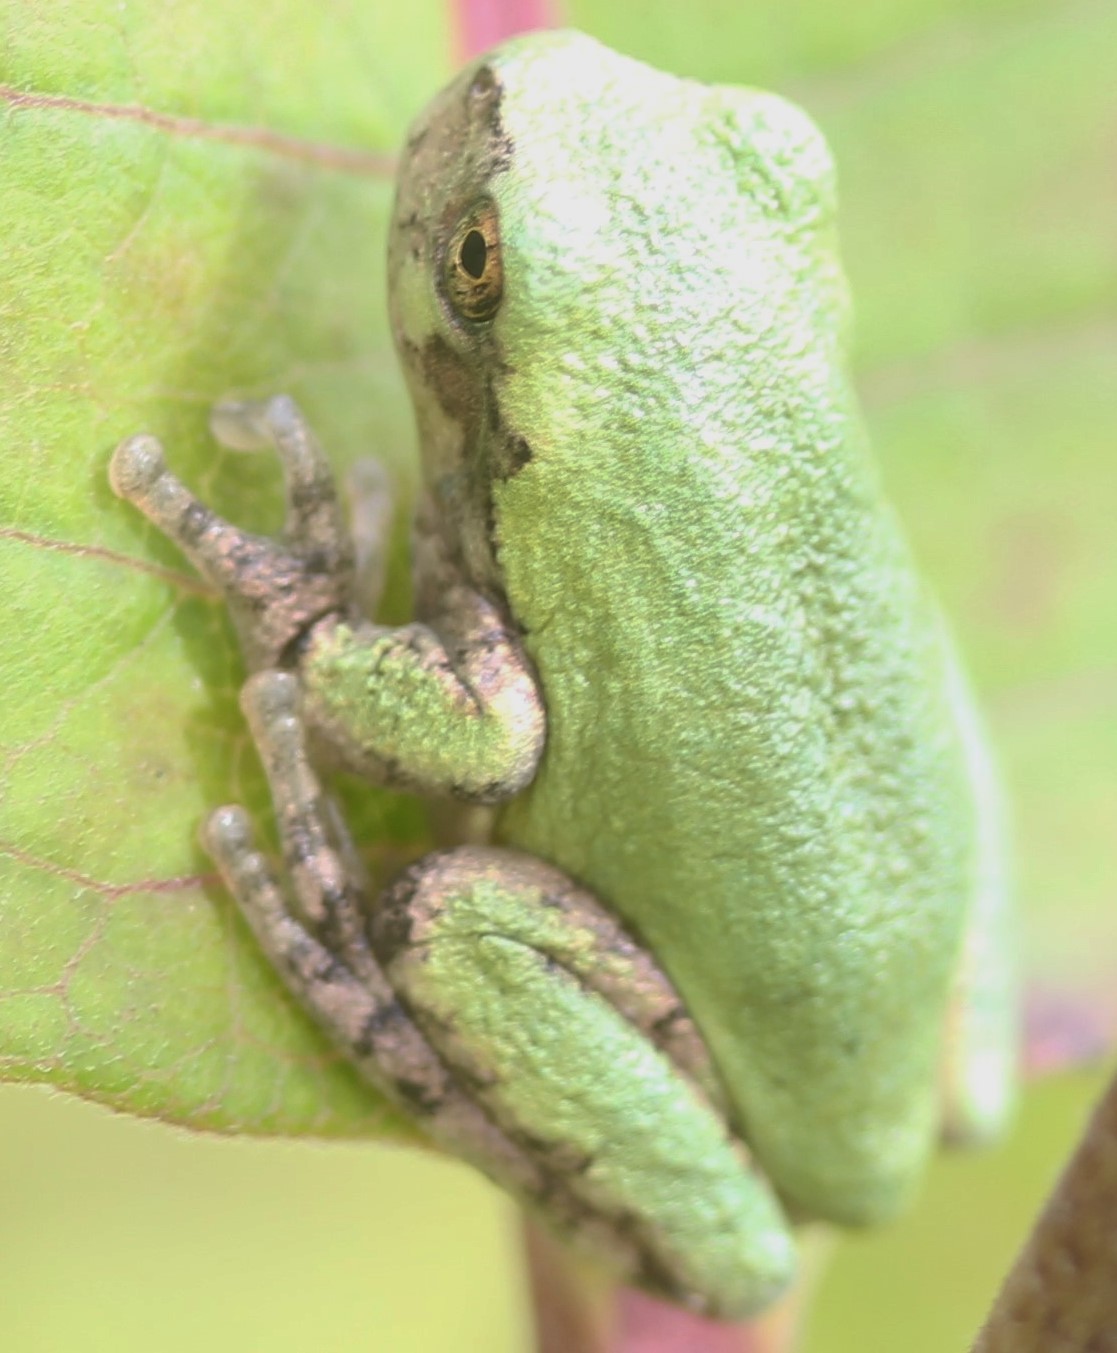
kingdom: Animalia
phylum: Chordata
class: Amphibia
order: Anura
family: Hylidae
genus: Hyla
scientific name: Hyla
